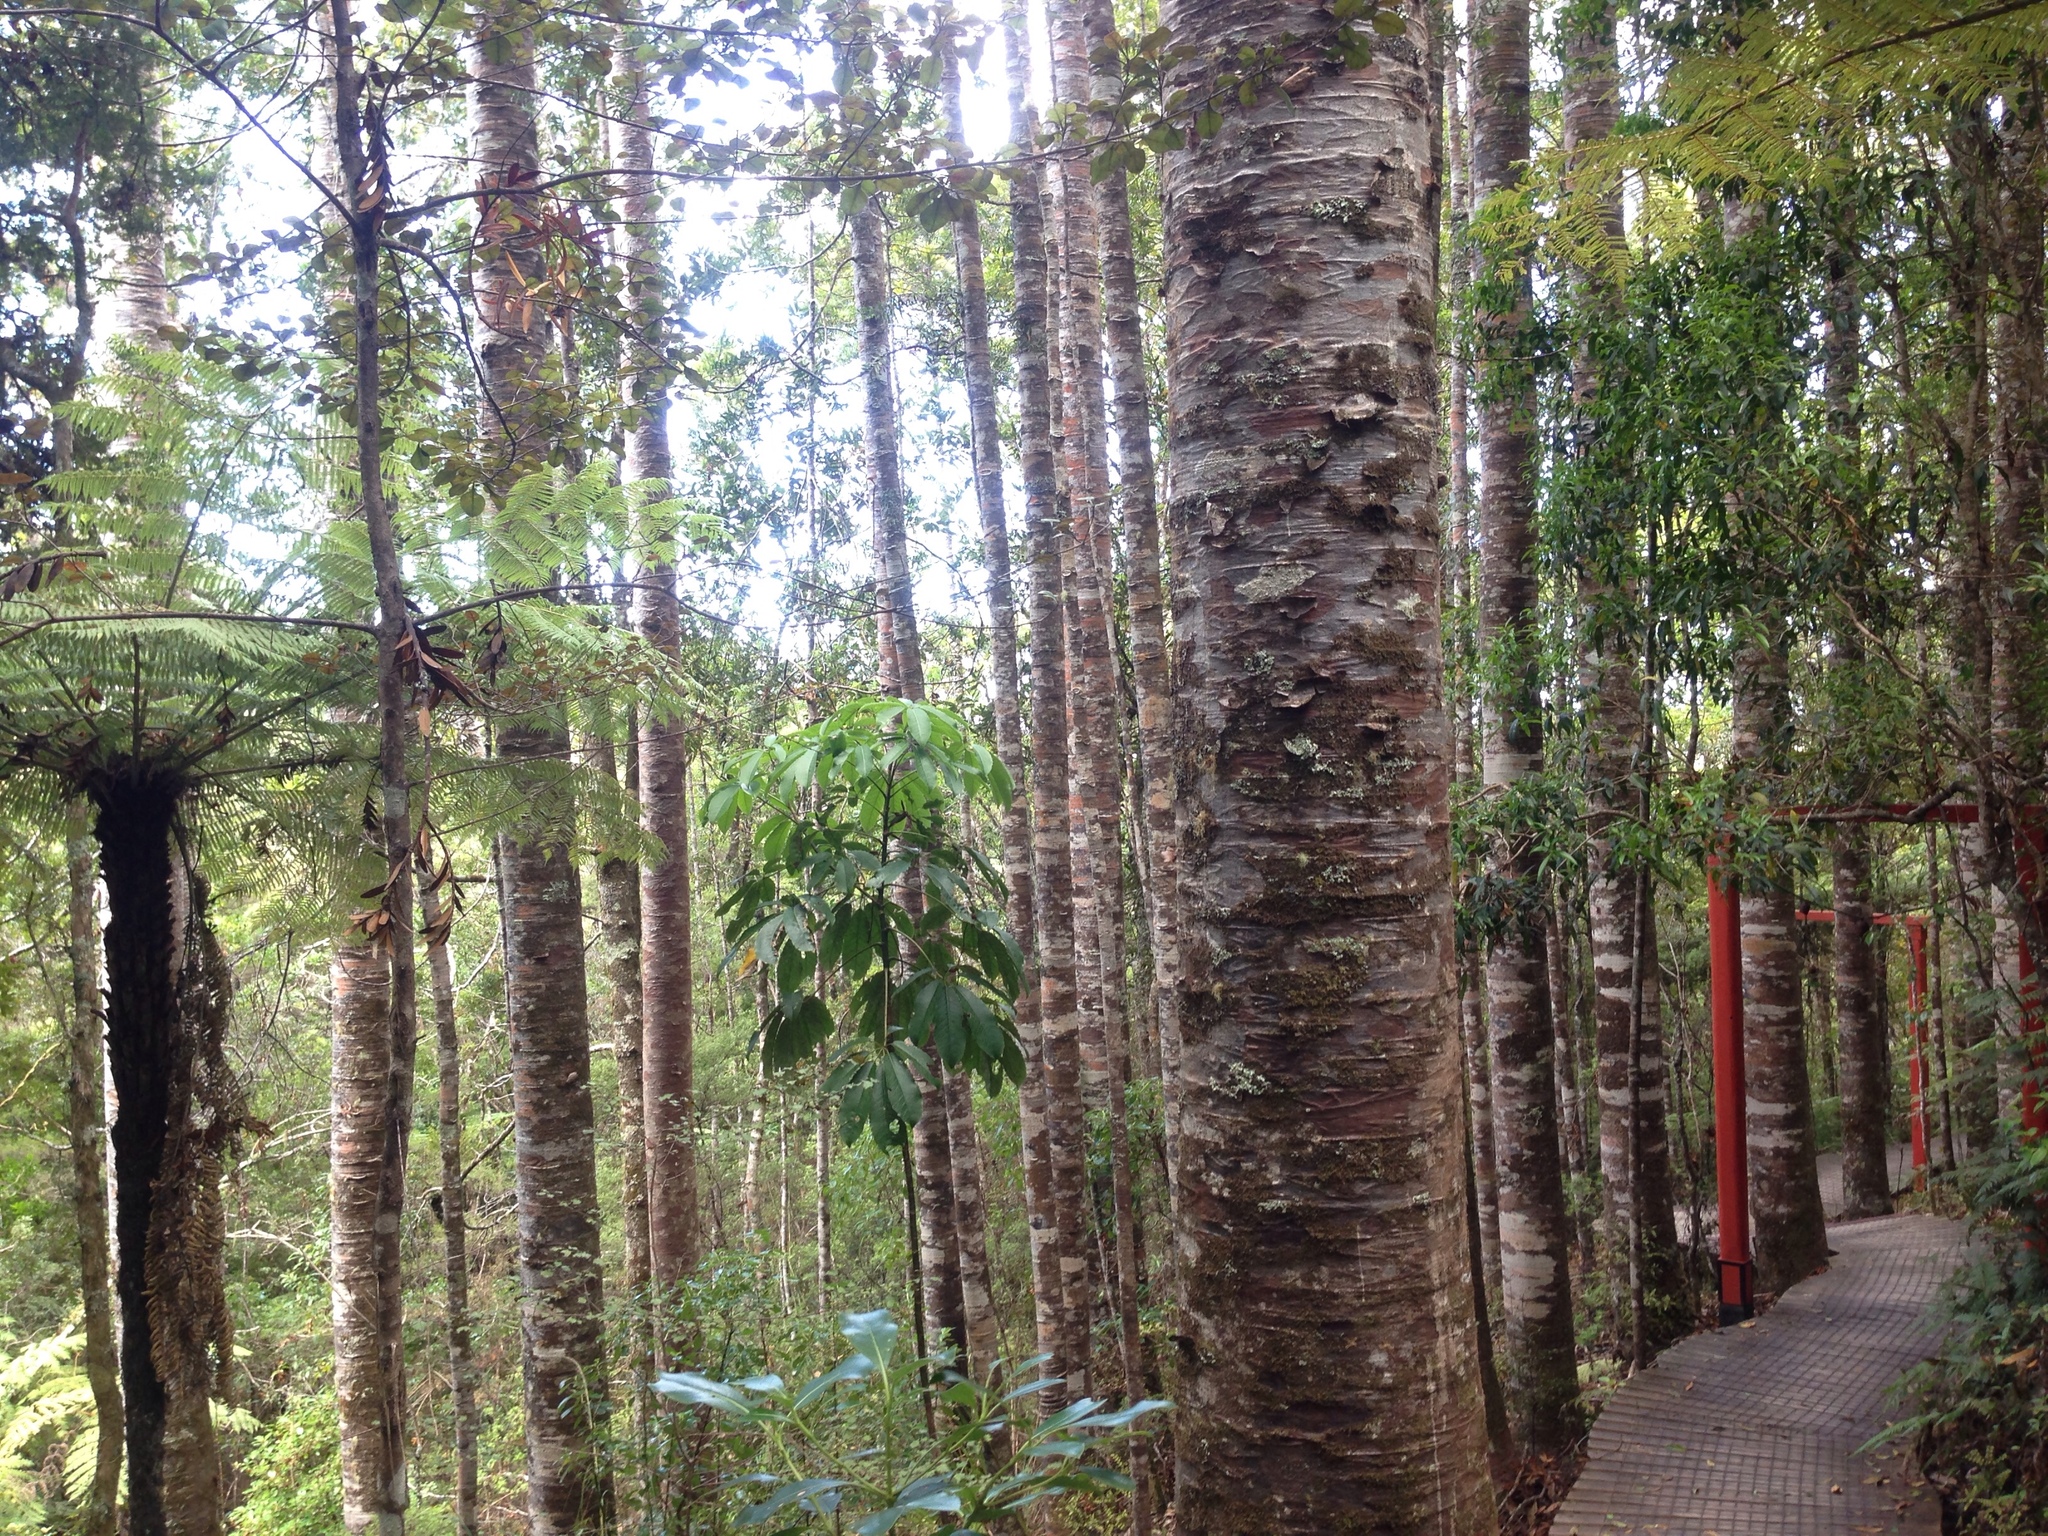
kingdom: Plantae
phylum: Tracheophyta
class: Pinopsida
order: Pinales
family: Araucariaceae
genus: Agathis
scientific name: Agathis australis
